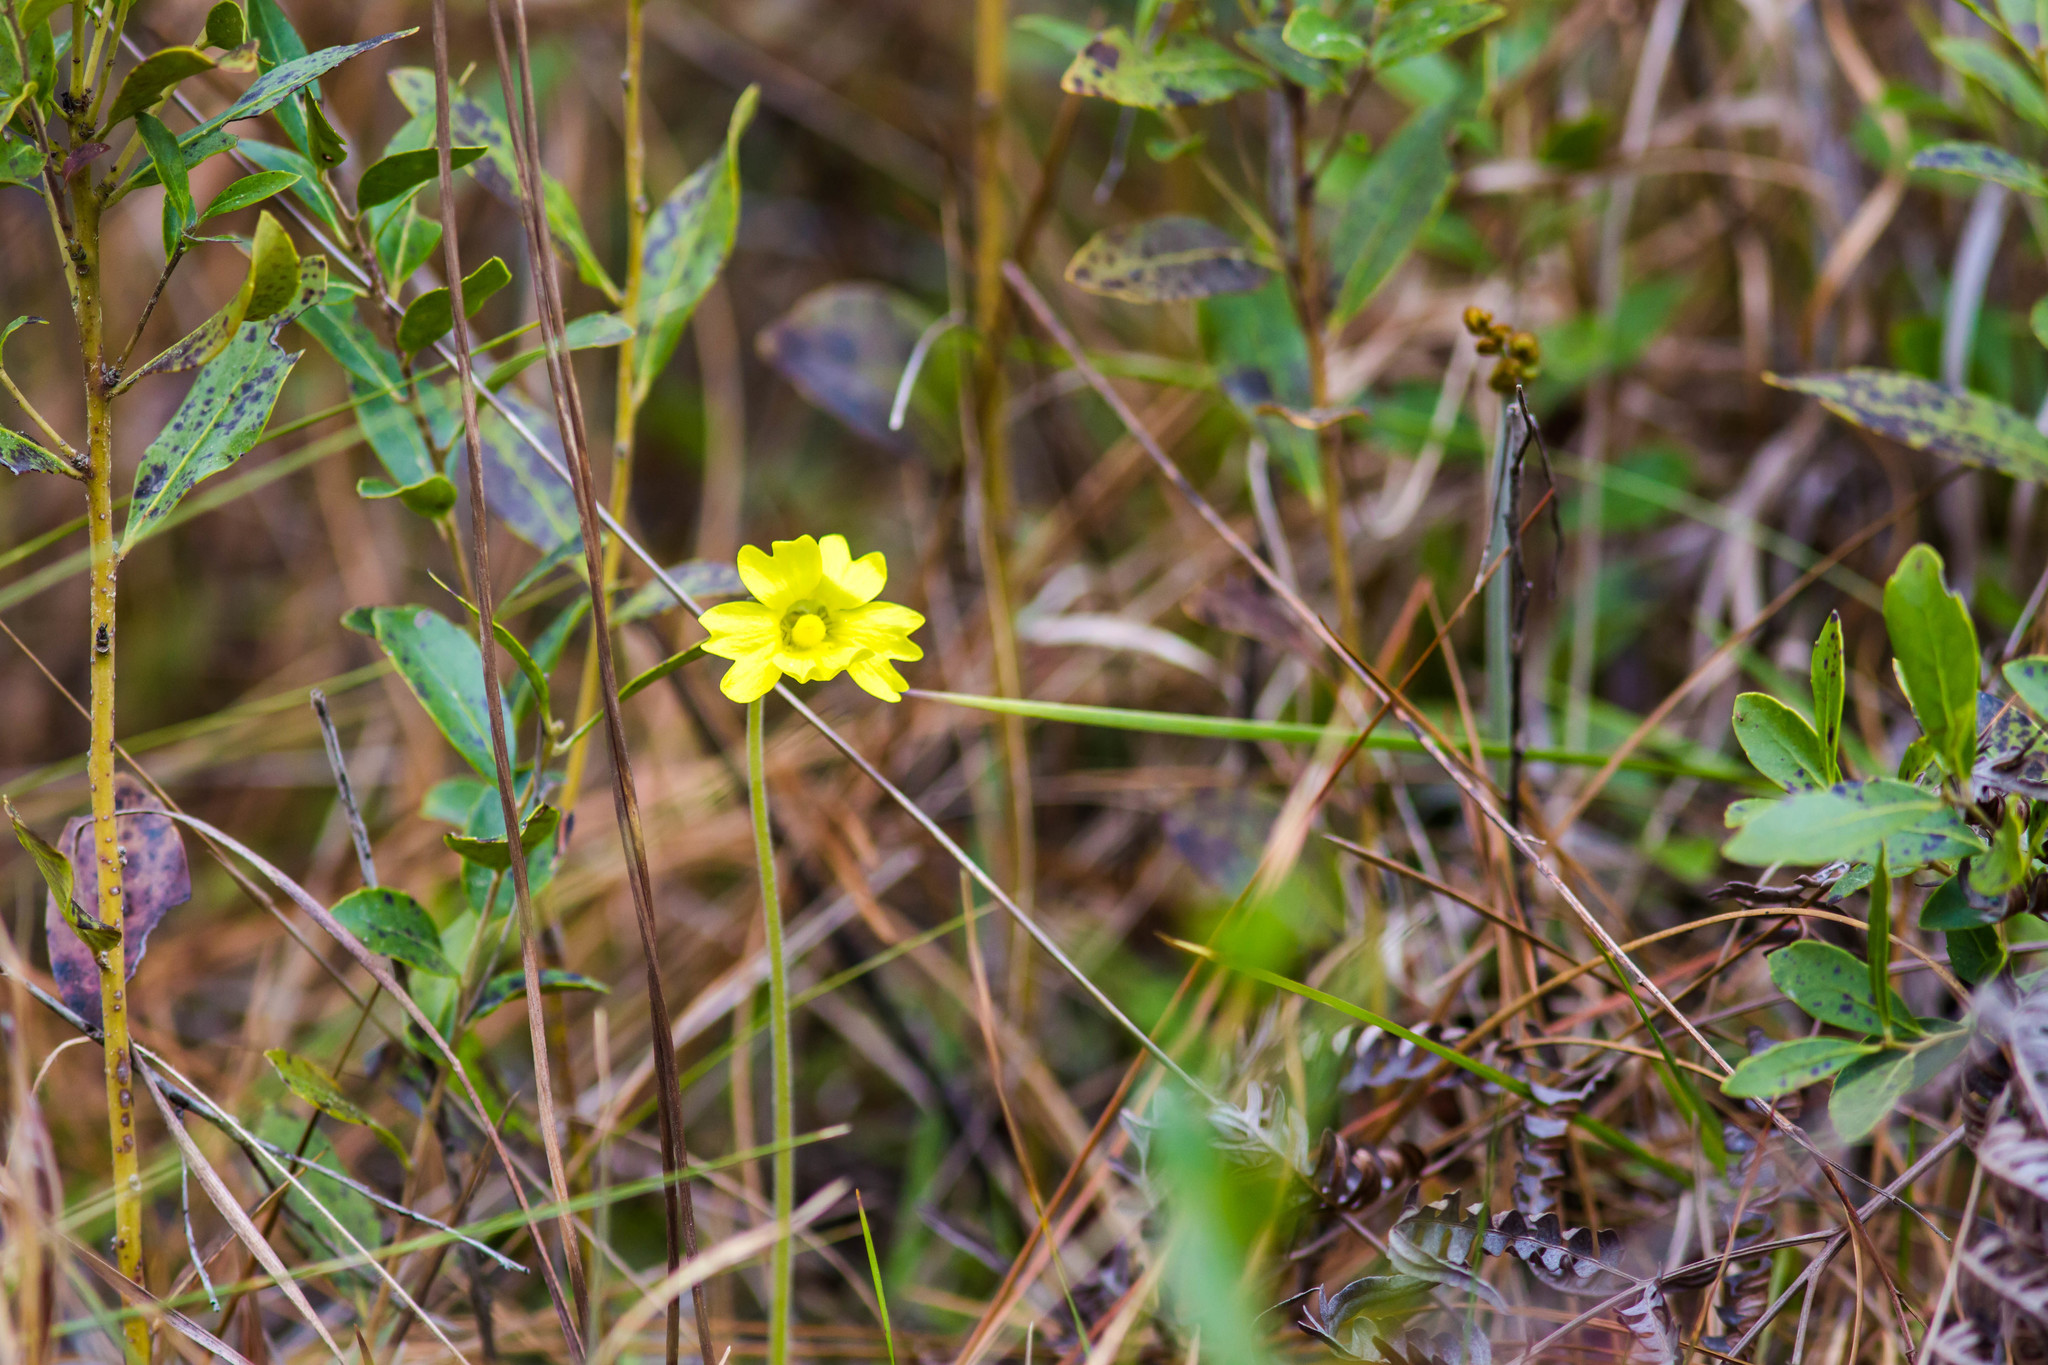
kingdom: Plantae
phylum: Tracheophyta
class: Magnoliopsida
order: Lamiales
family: Lentibulariaceae
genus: Pinguicula
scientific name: Pinguicula lutea
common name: Yellow butterwort
